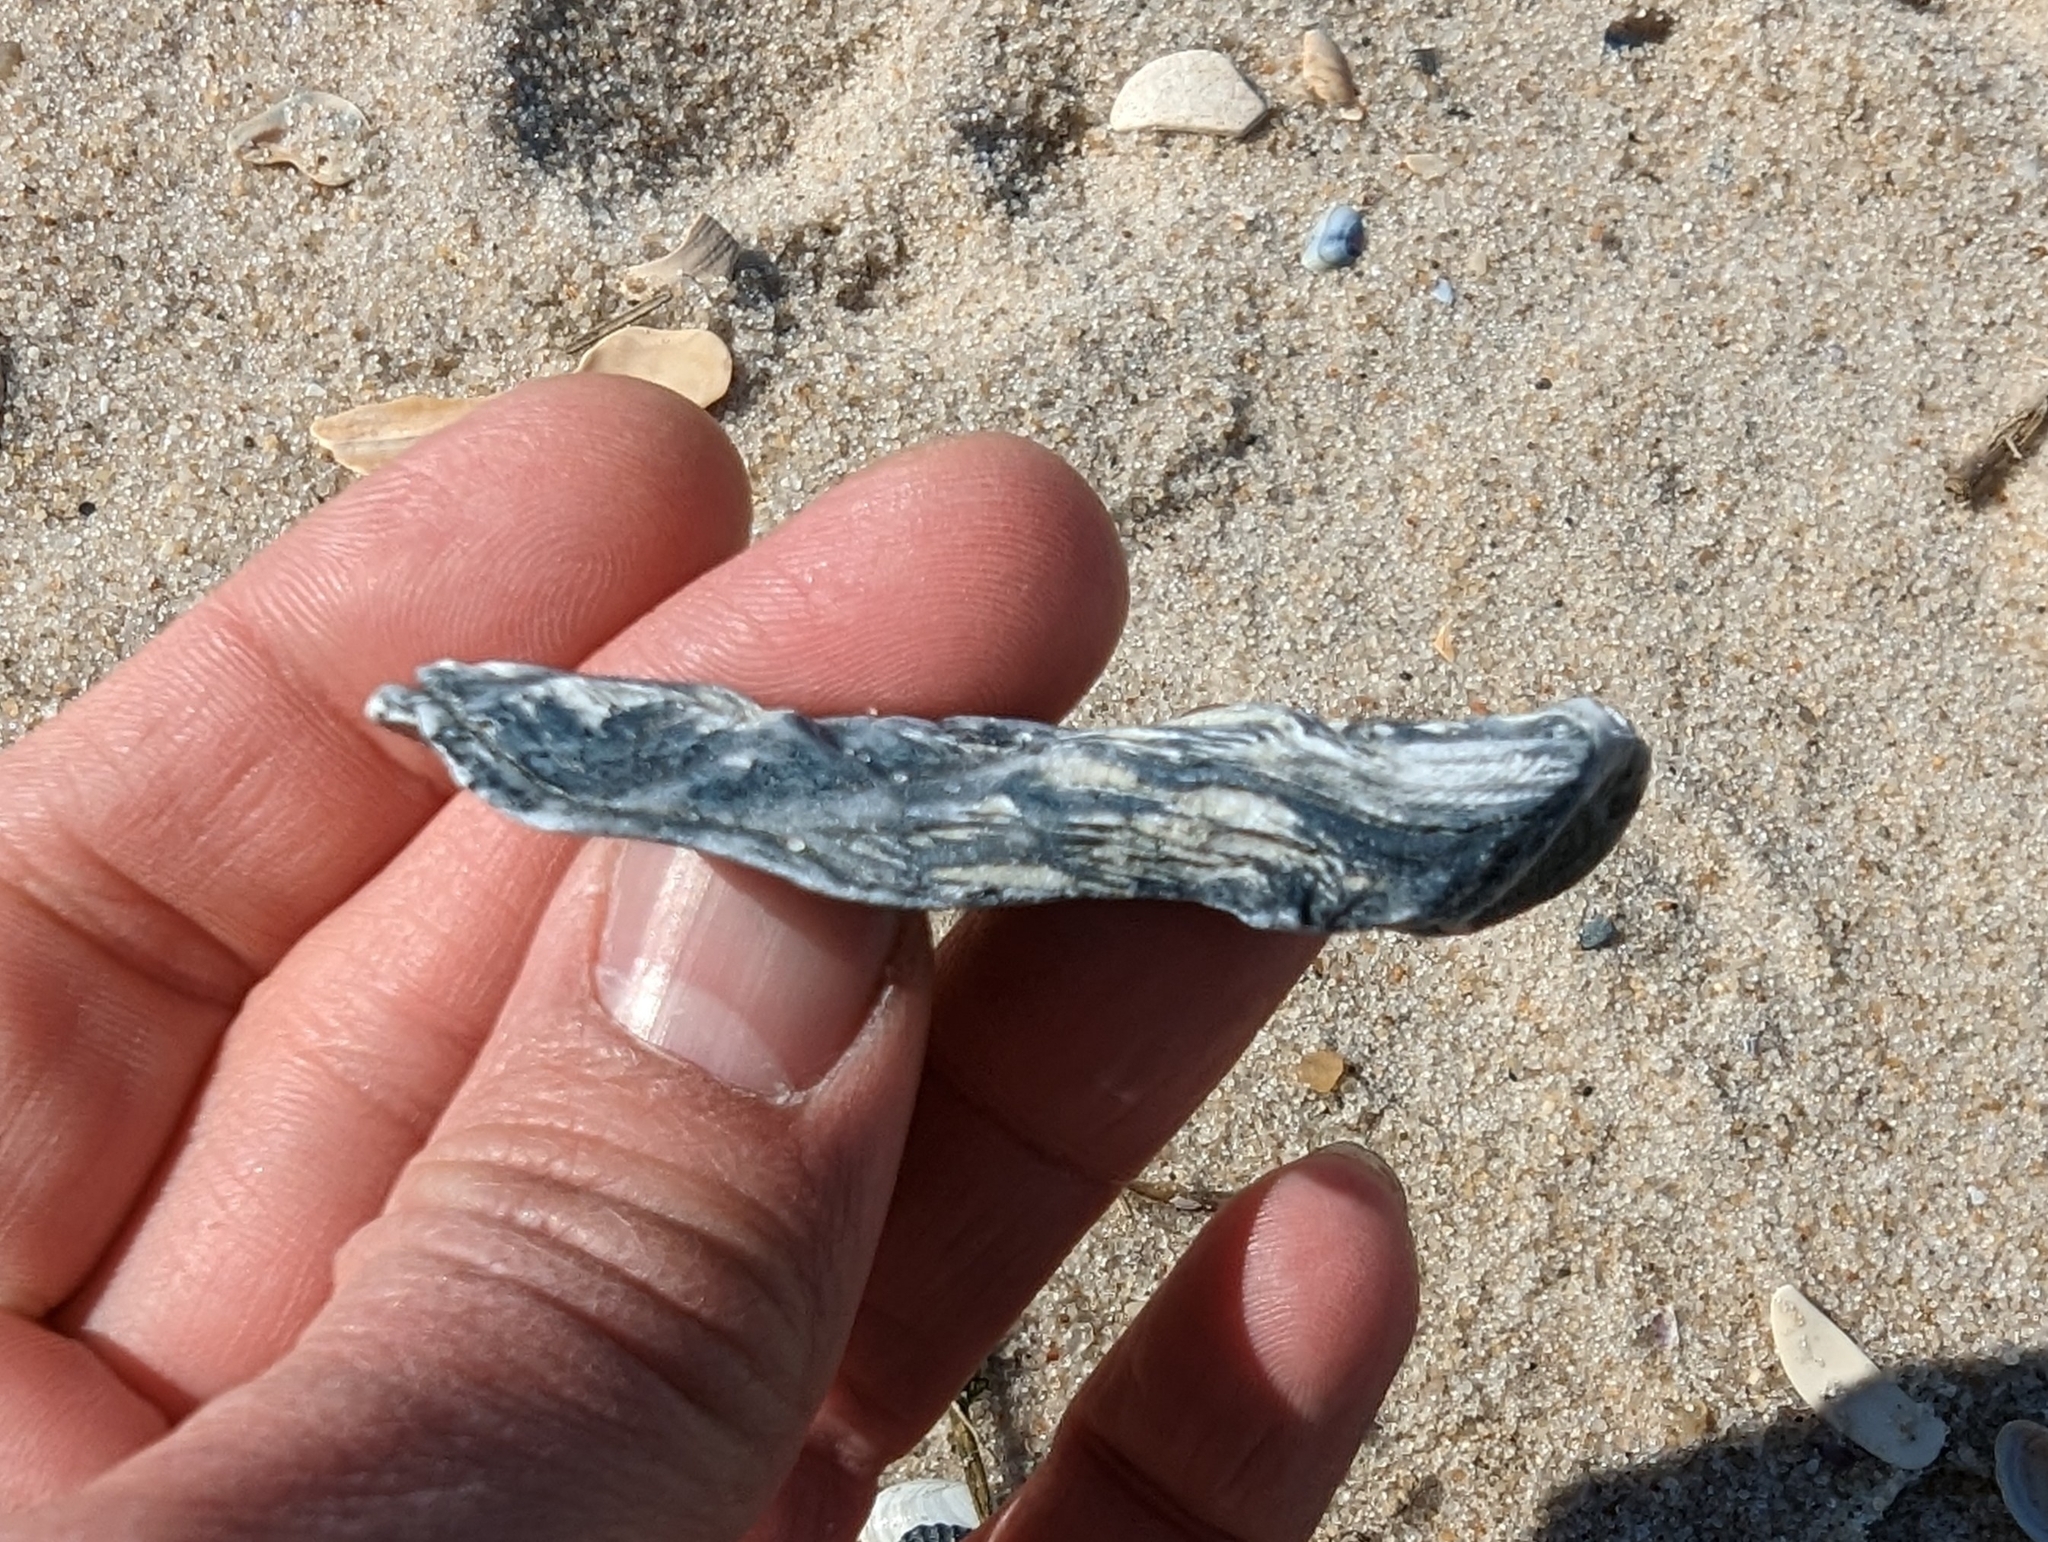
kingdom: Animalia
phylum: Mollusca
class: Bivalvia
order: Ostreida
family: Ostreidae
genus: Crassostrea
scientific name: Crassostrea virginica
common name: American oyster
